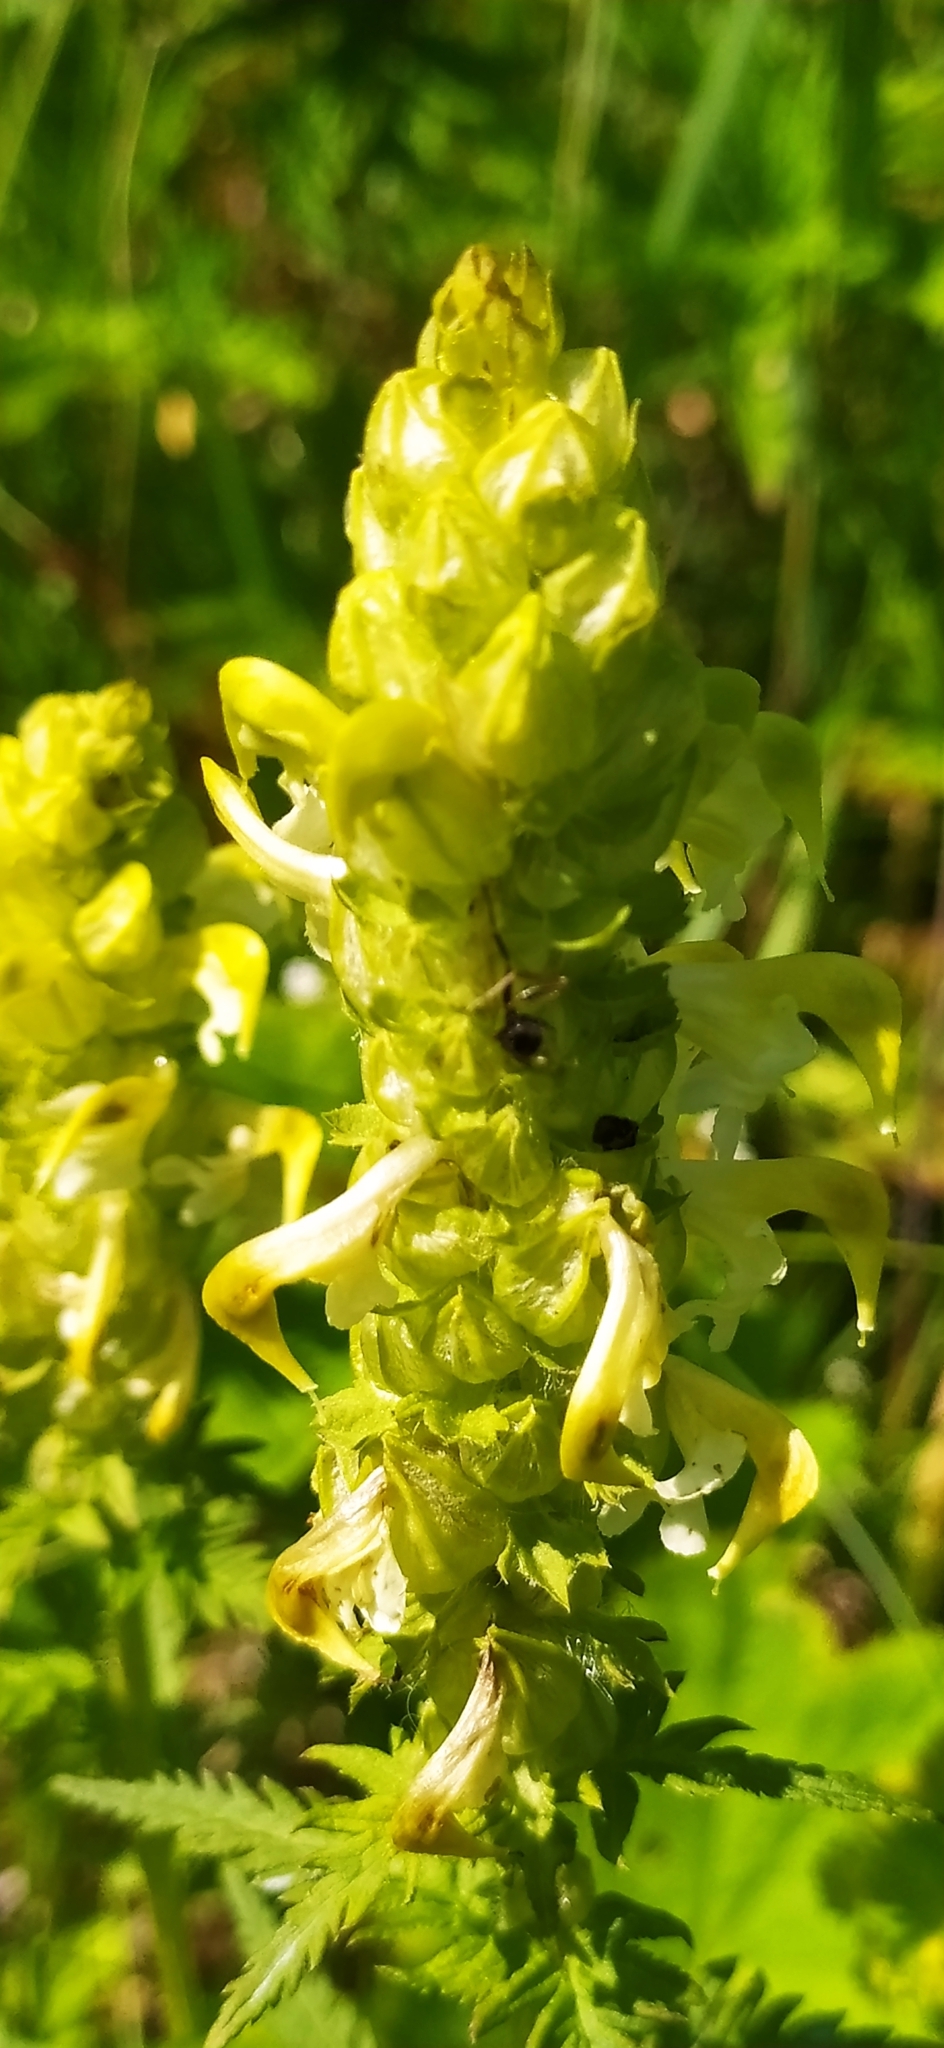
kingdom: Plantae
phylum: Tracheophyta
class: Magnoliopsida
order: Lamiales
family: Orobanchaceae
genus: Pedicularis
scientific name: Pedicularis compacta
